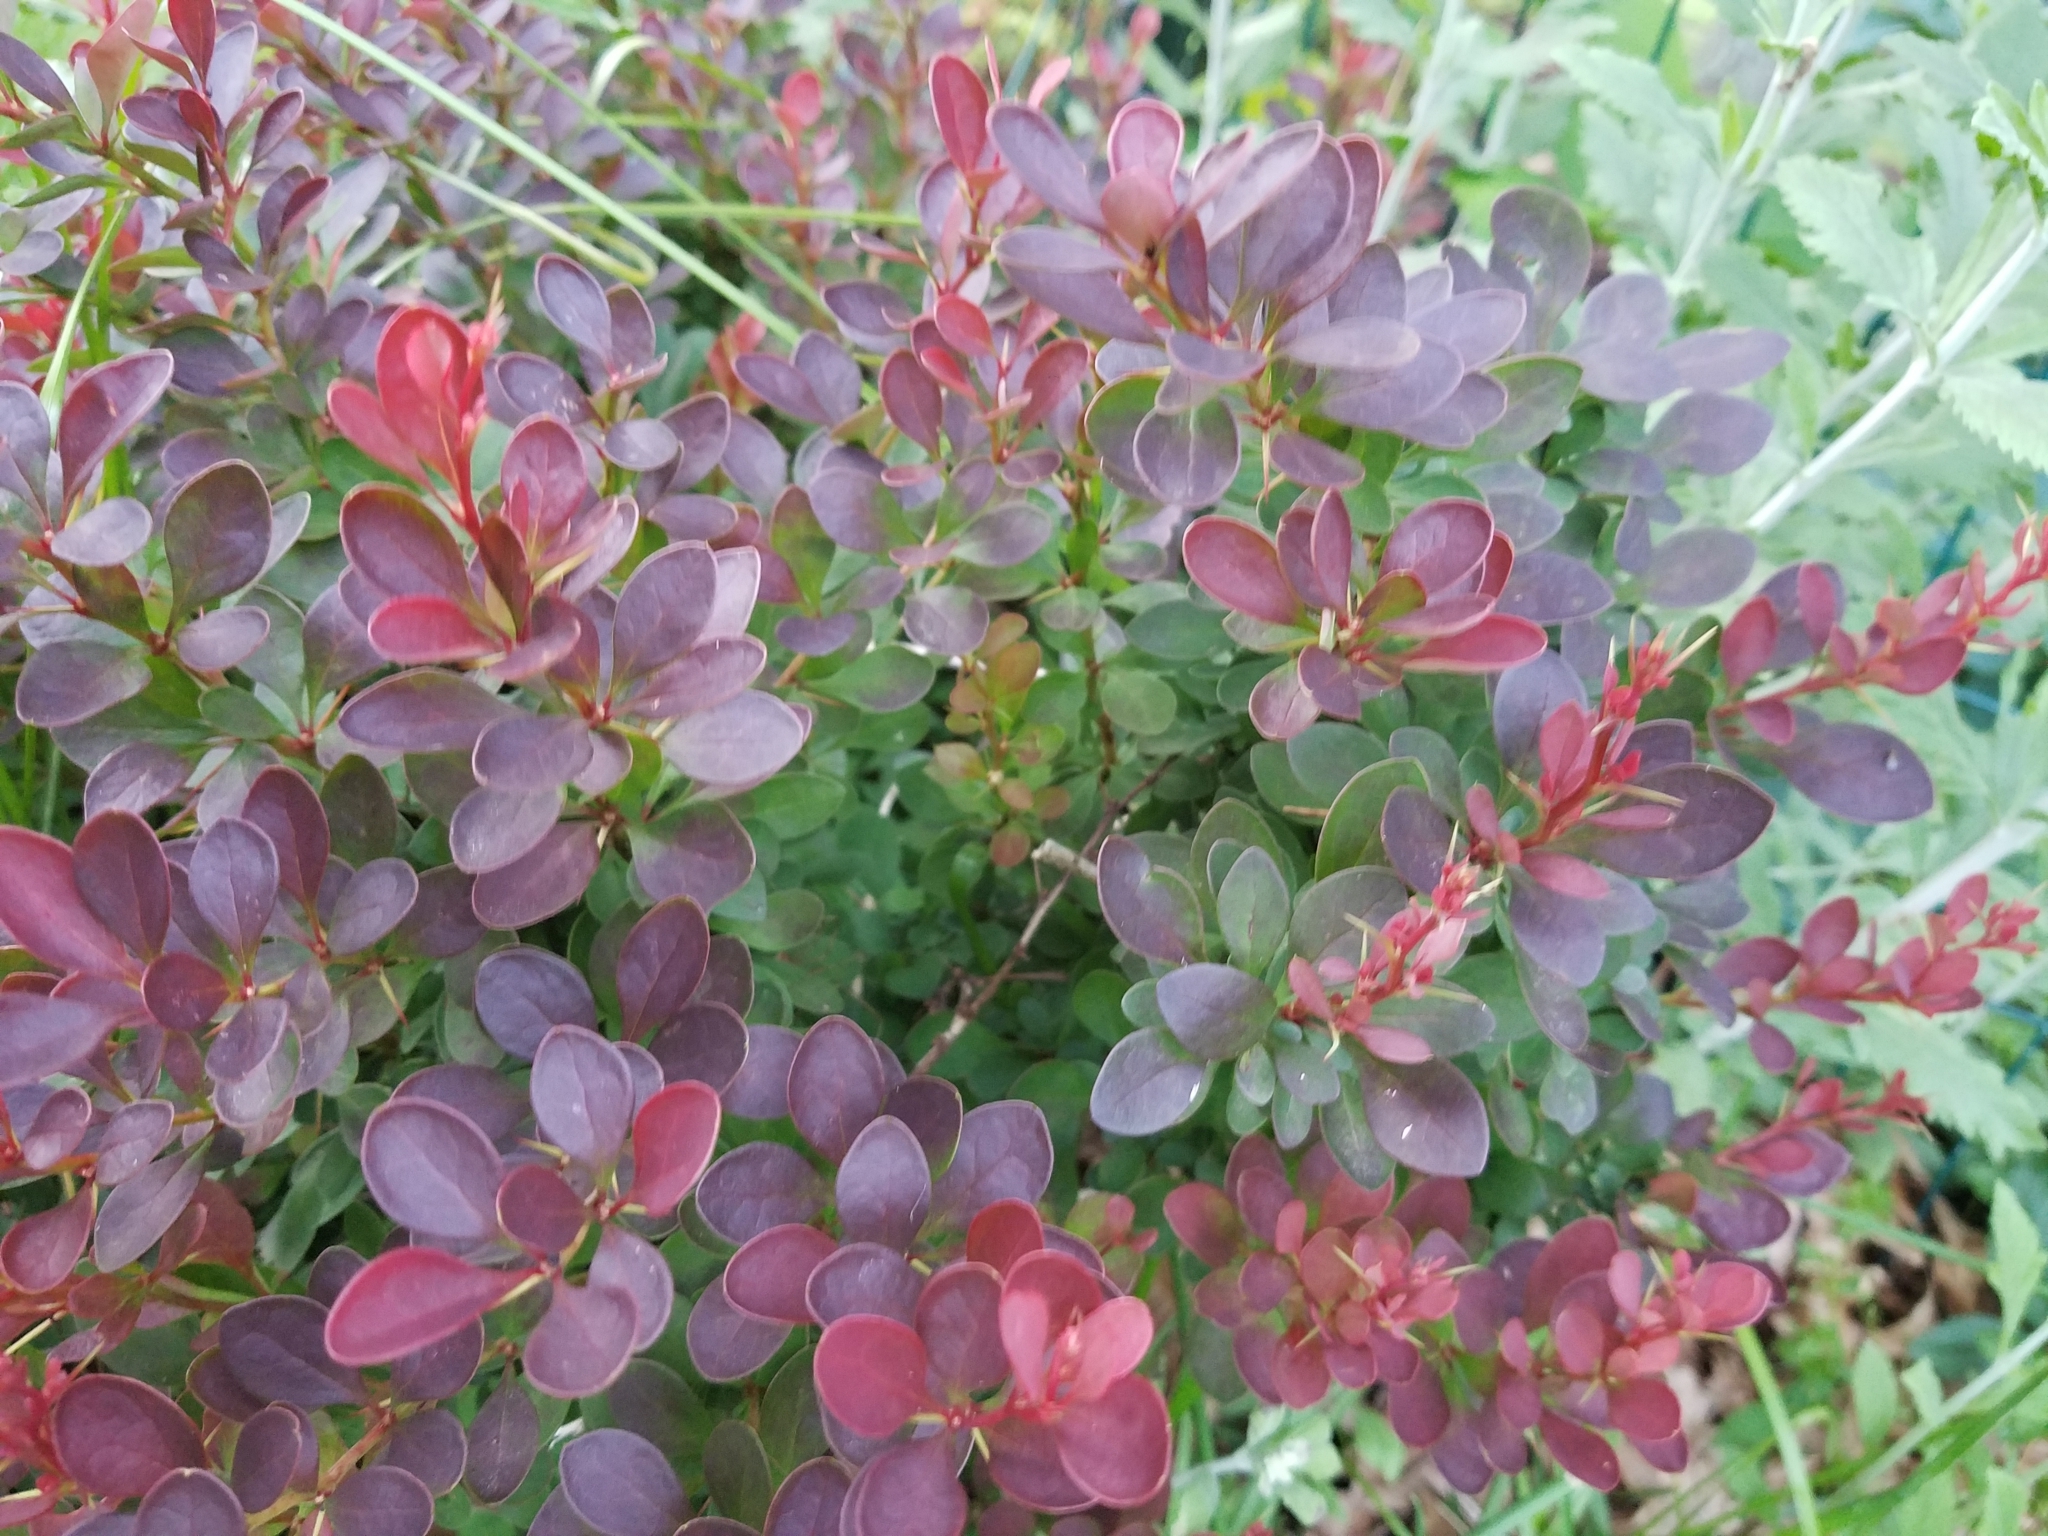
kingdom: Plantae
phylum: Tracheophyta
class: Magnoliopsida
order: Ranunculales
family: Berberidaceae
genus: Berberis
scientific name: Berberis thunbergii
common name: Japanese barberry
